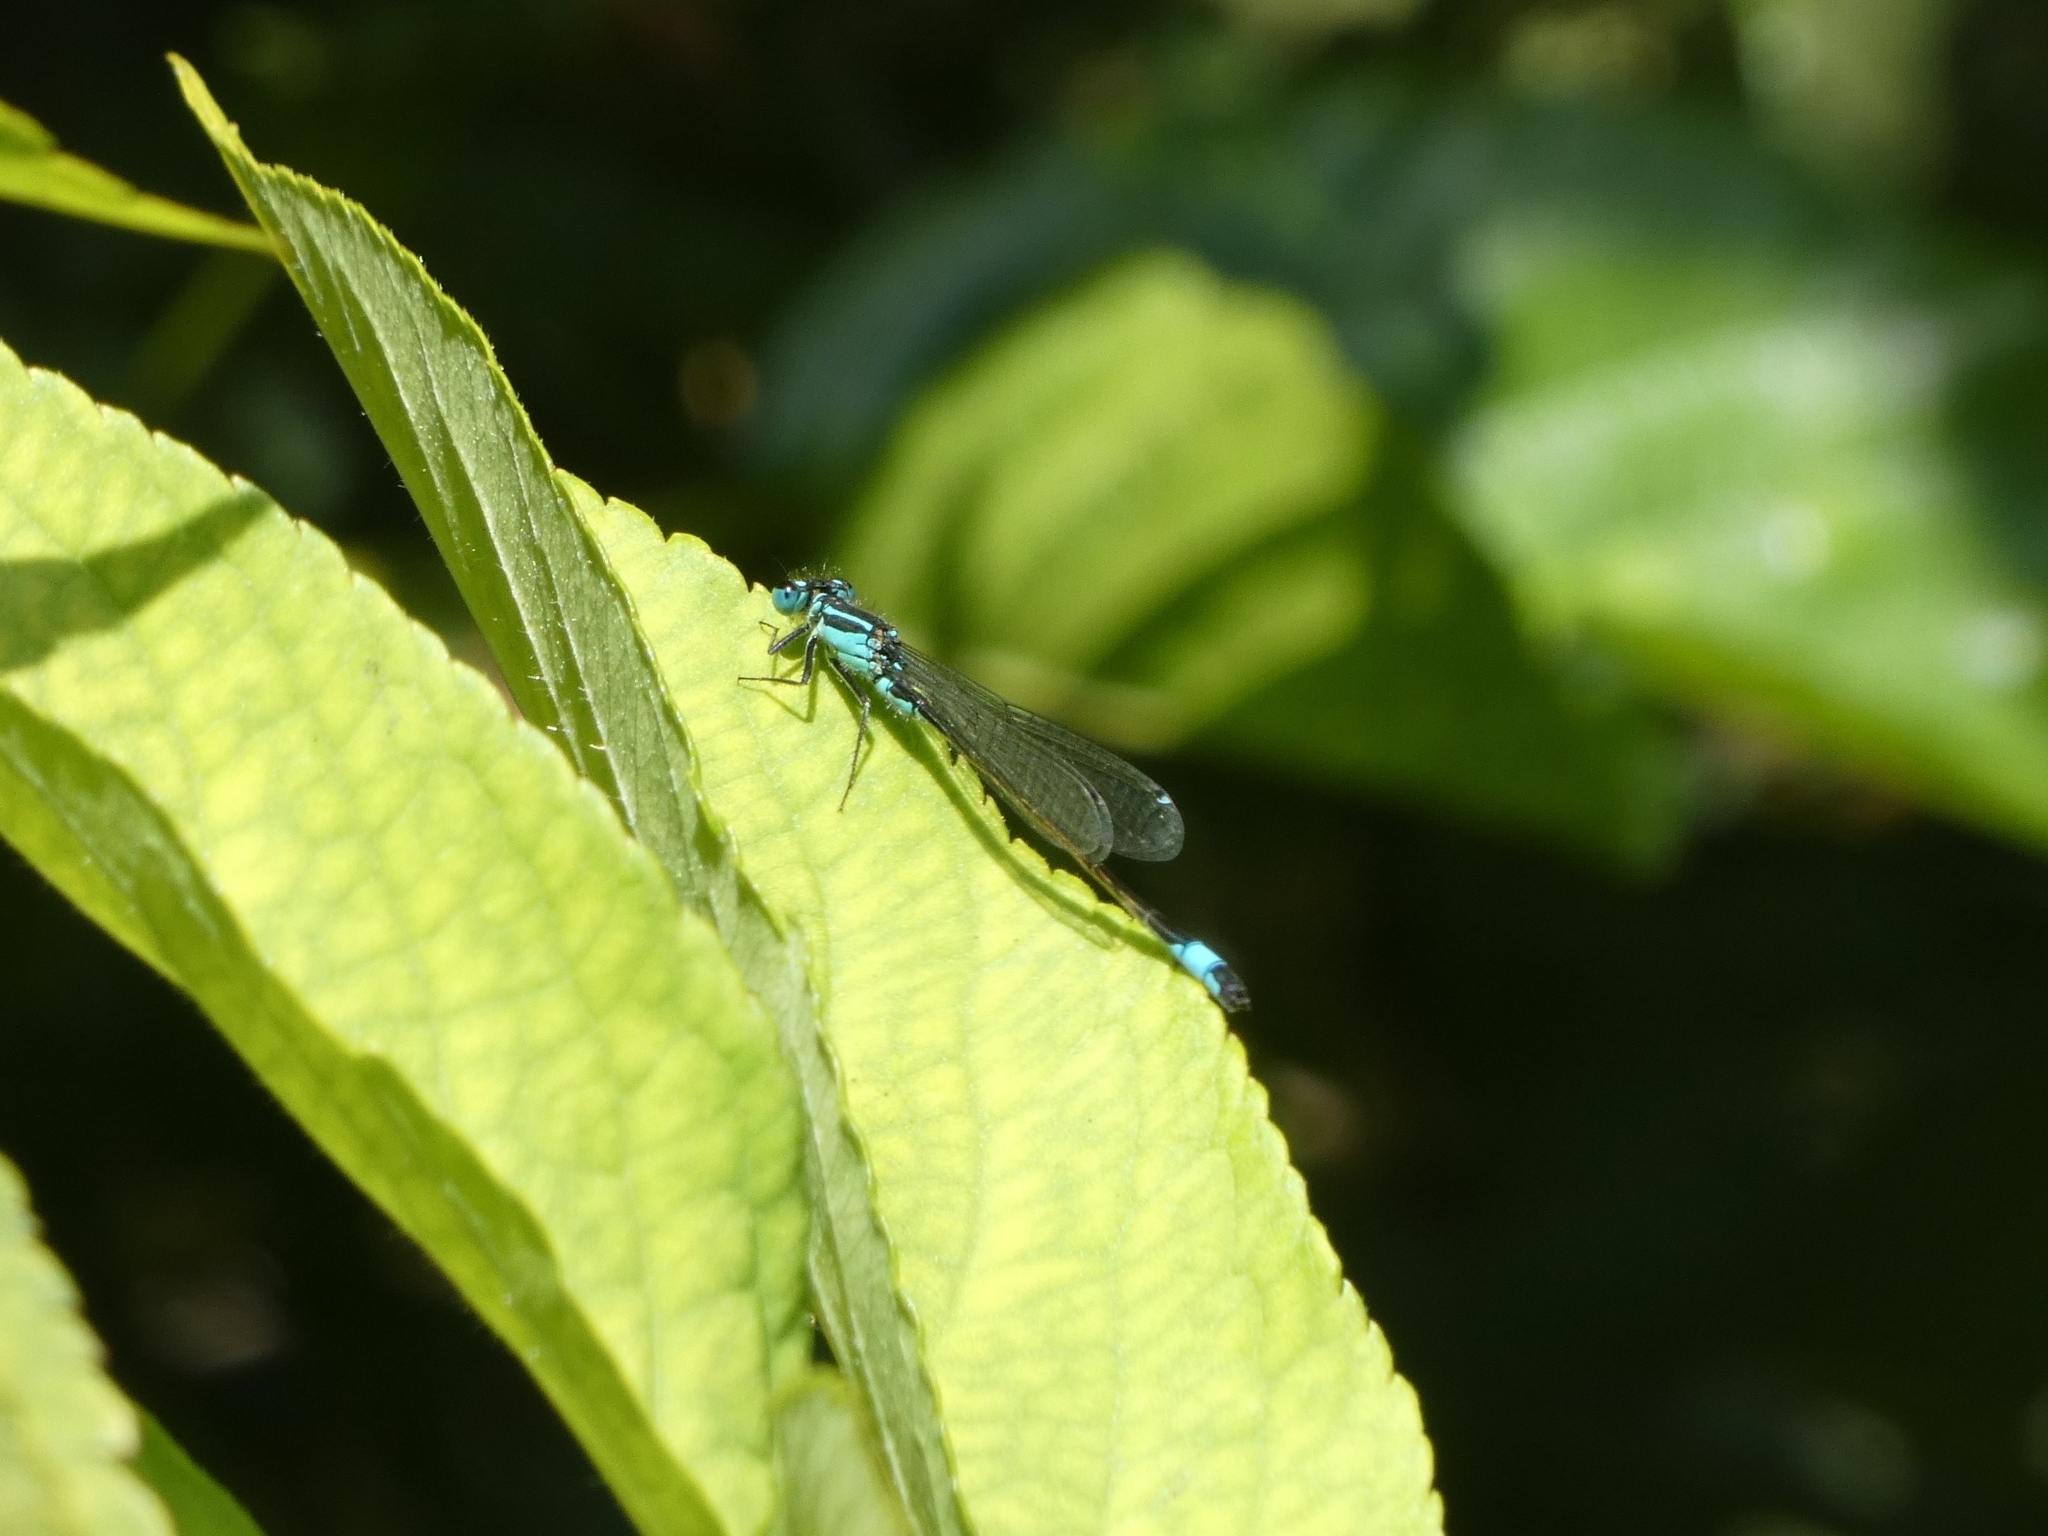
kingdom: Animalia
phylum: Arthropoda
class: Insecta
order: Odonata
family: Coenagrionidae
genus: Ischnura
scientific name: Ischnura elegans
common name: Blue-tailed damselfly
